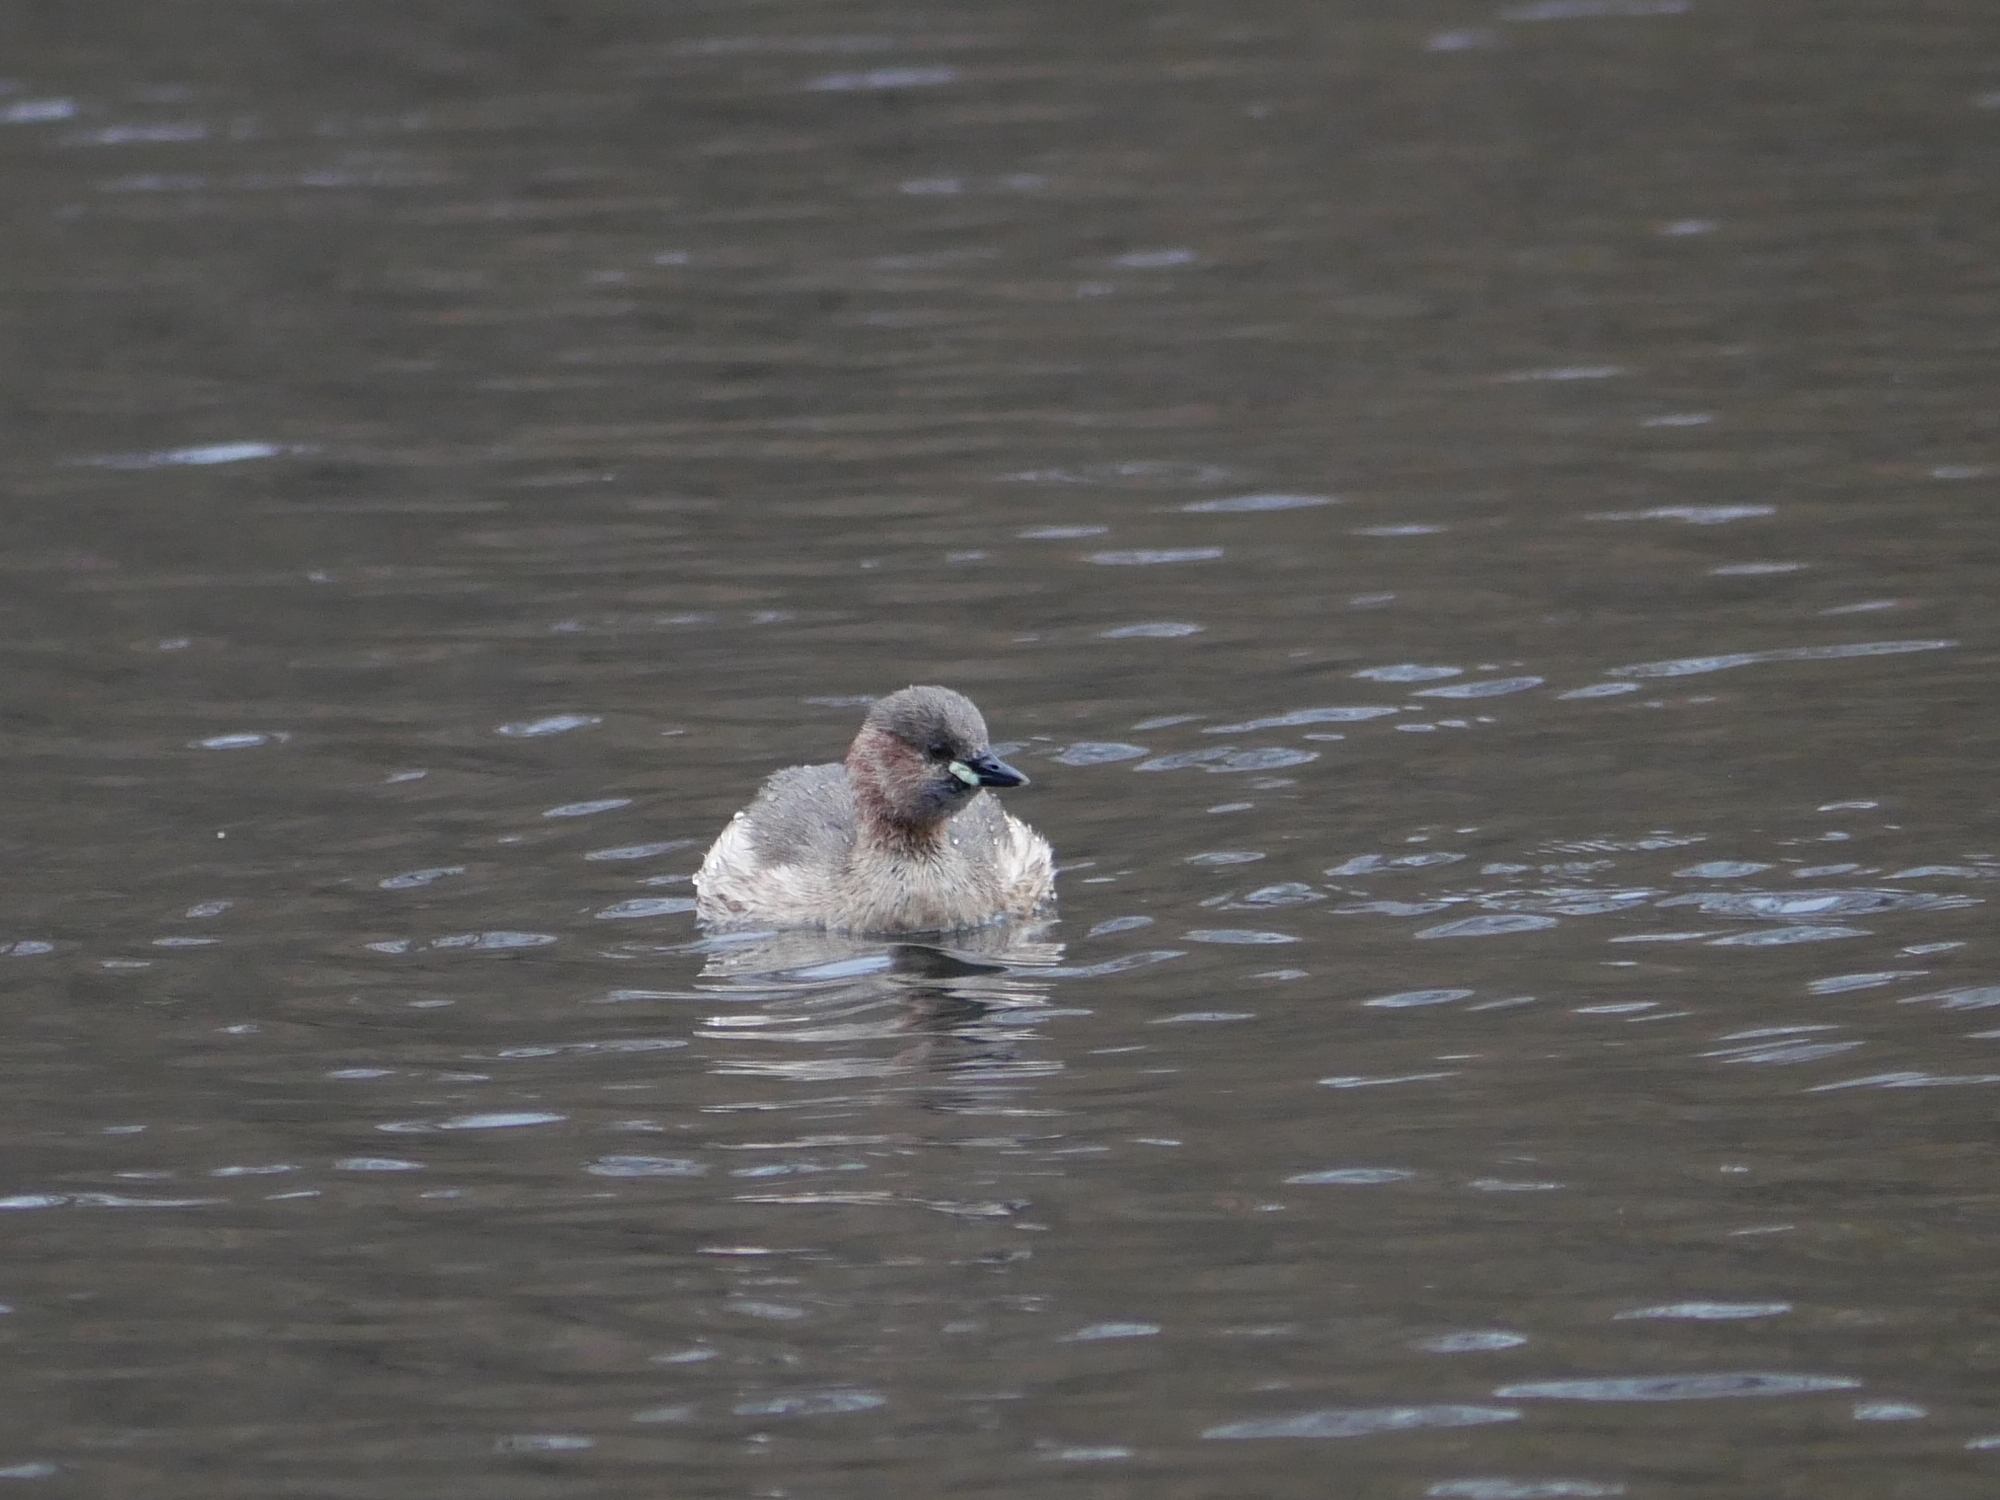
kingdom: Animalia
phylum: Chordata
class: Aves
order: Podicipediformes
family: Podicipedidae
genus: Tachybaptus
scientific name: Tachybaptus ruficollis
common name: Little grebe
